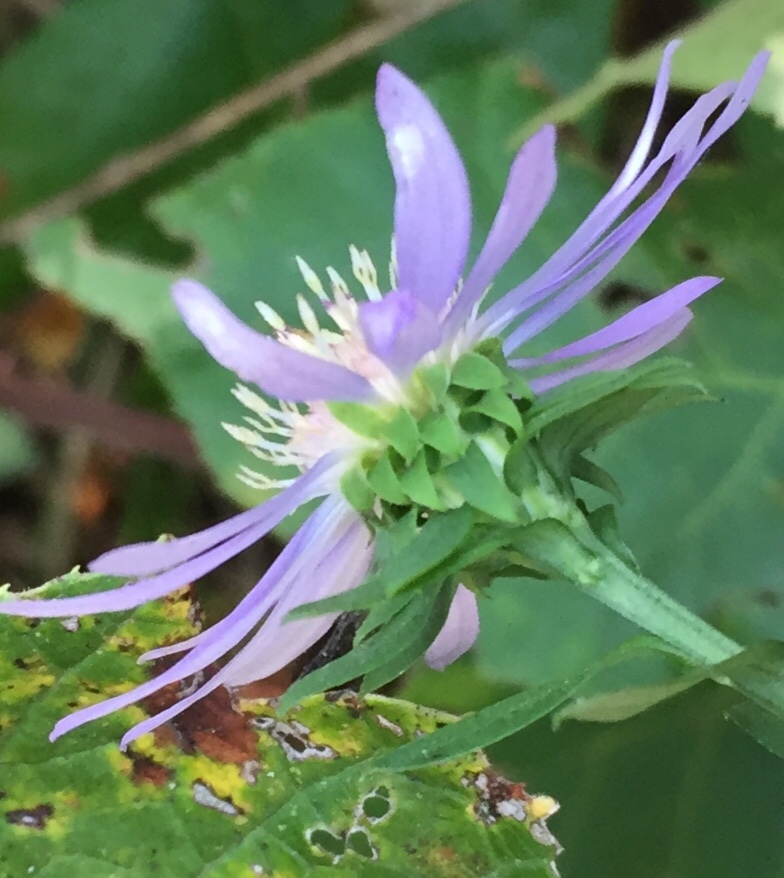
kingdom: Plantae
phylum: Tracheophyta
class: Magnoliopsida
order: Asterales
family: Asteraceae
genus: Symphyotrichum
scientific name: Symphyotrichum retroflexum
